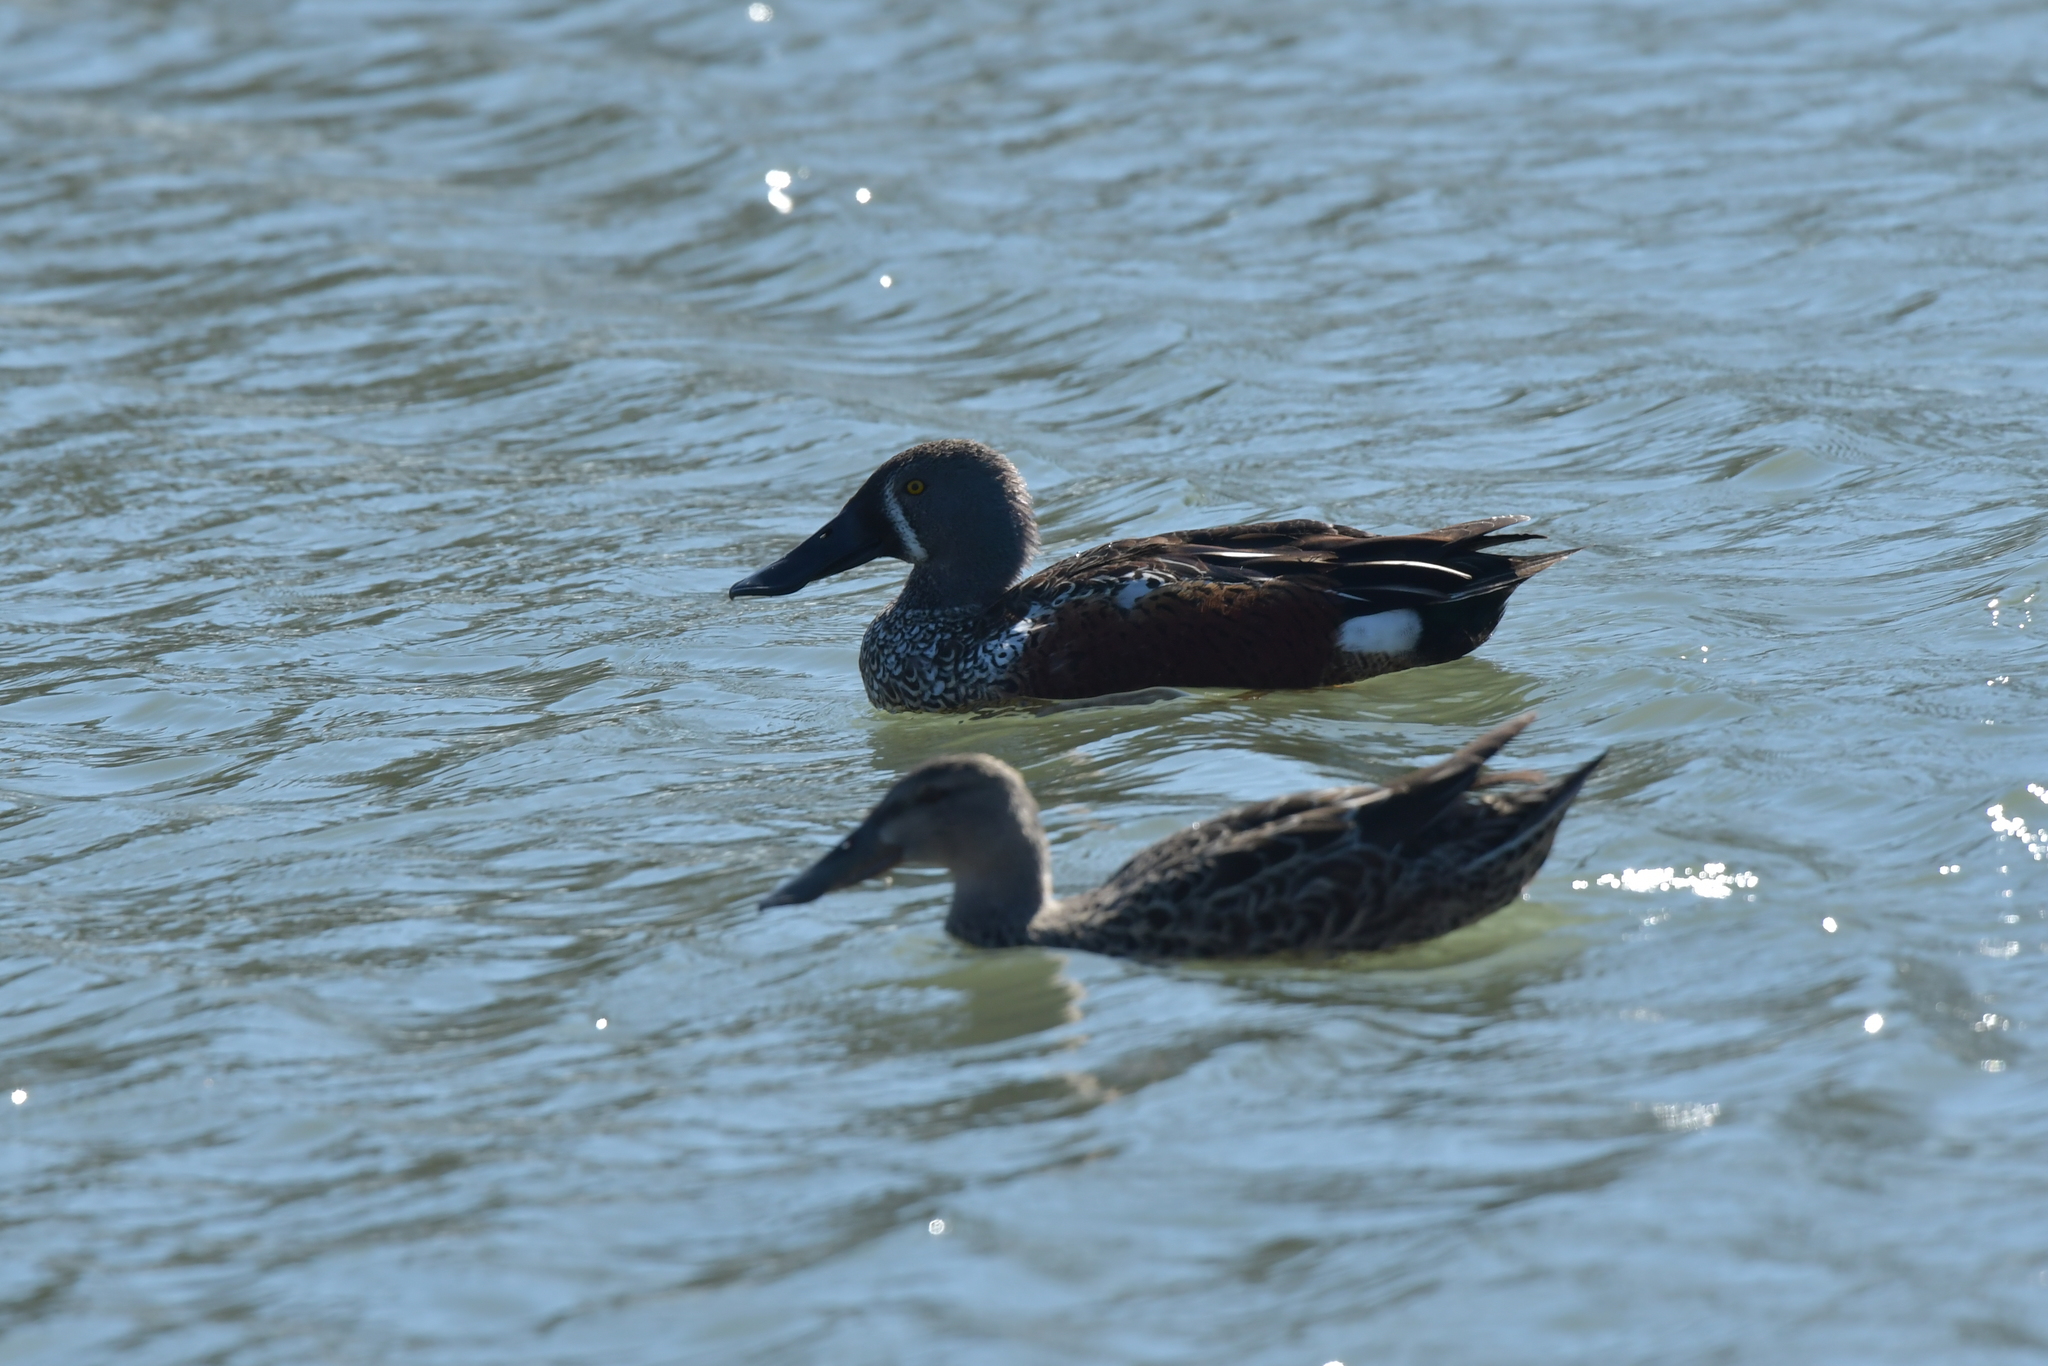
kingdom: Animalia
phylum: Chordata
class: Aves
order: Anseriformes
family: Anatidae
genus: Spatula
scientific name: Spatula rhynchotis
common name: Australian shoveler
